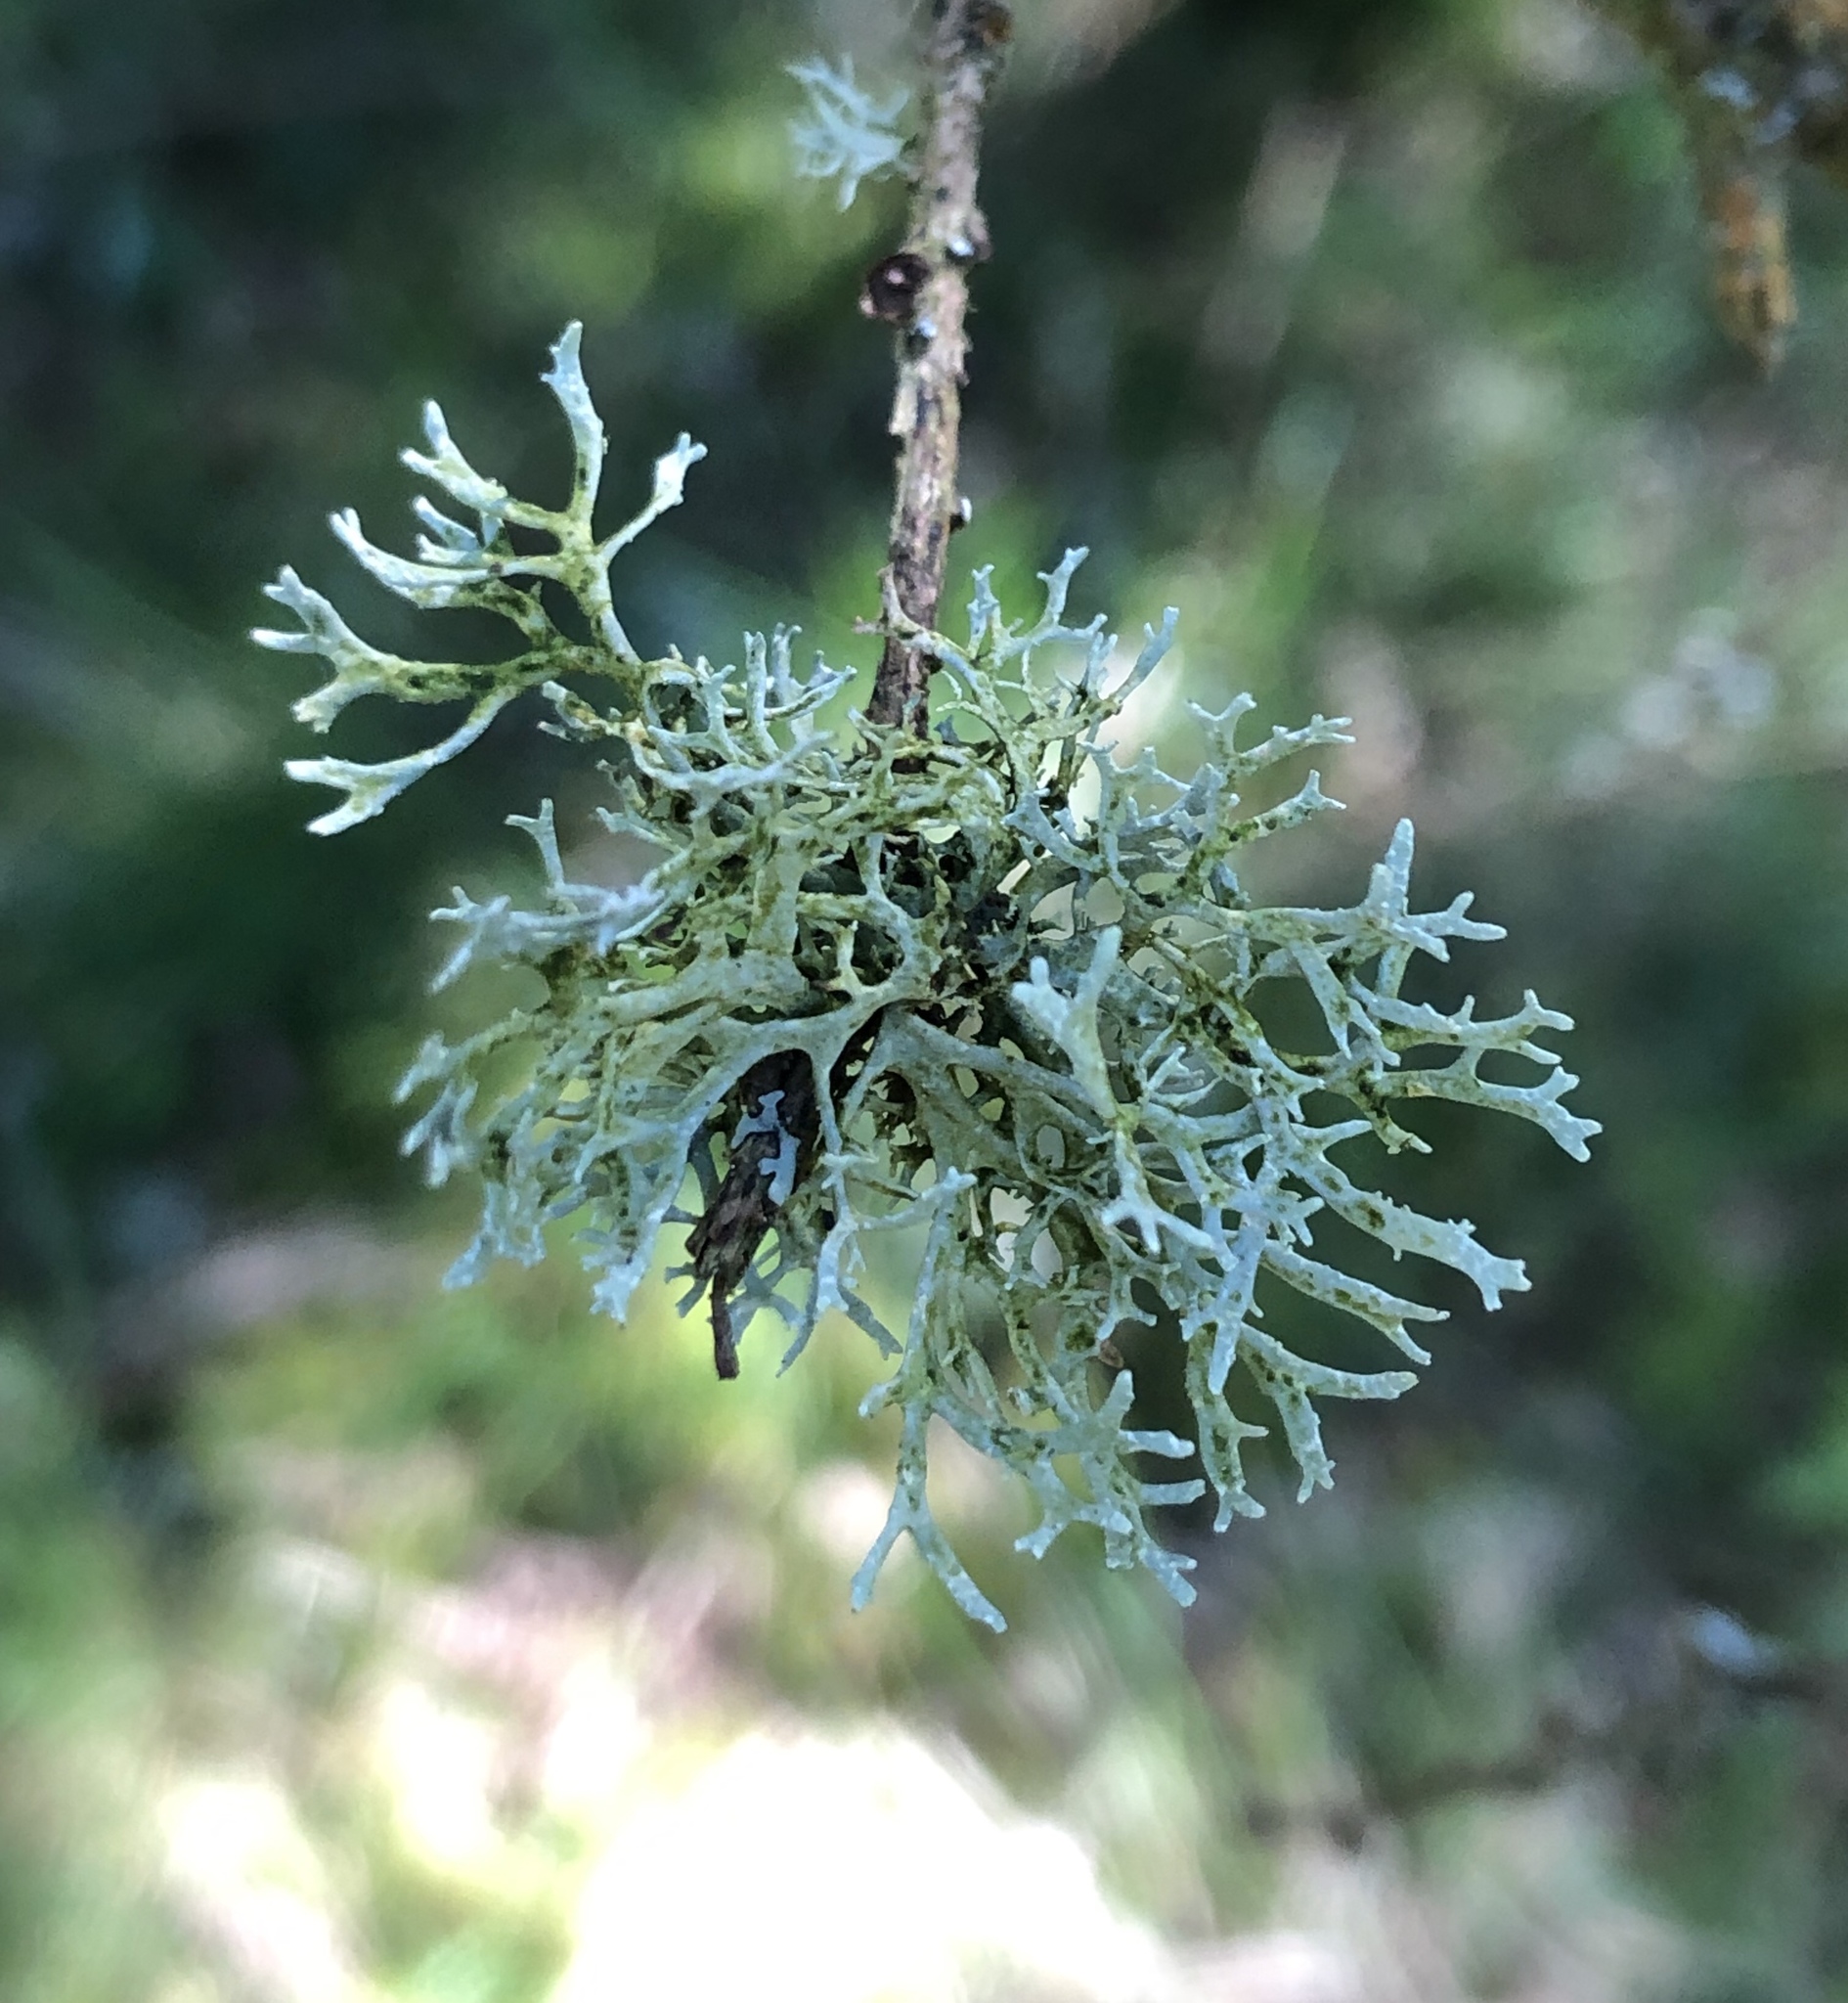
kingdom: Fungi
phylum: Ascomycota
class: Lecanoromycetes
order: Lecanorales
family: Parmeliaceae
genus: Evernia
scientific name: Evernia prunastri
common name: Oak moss
